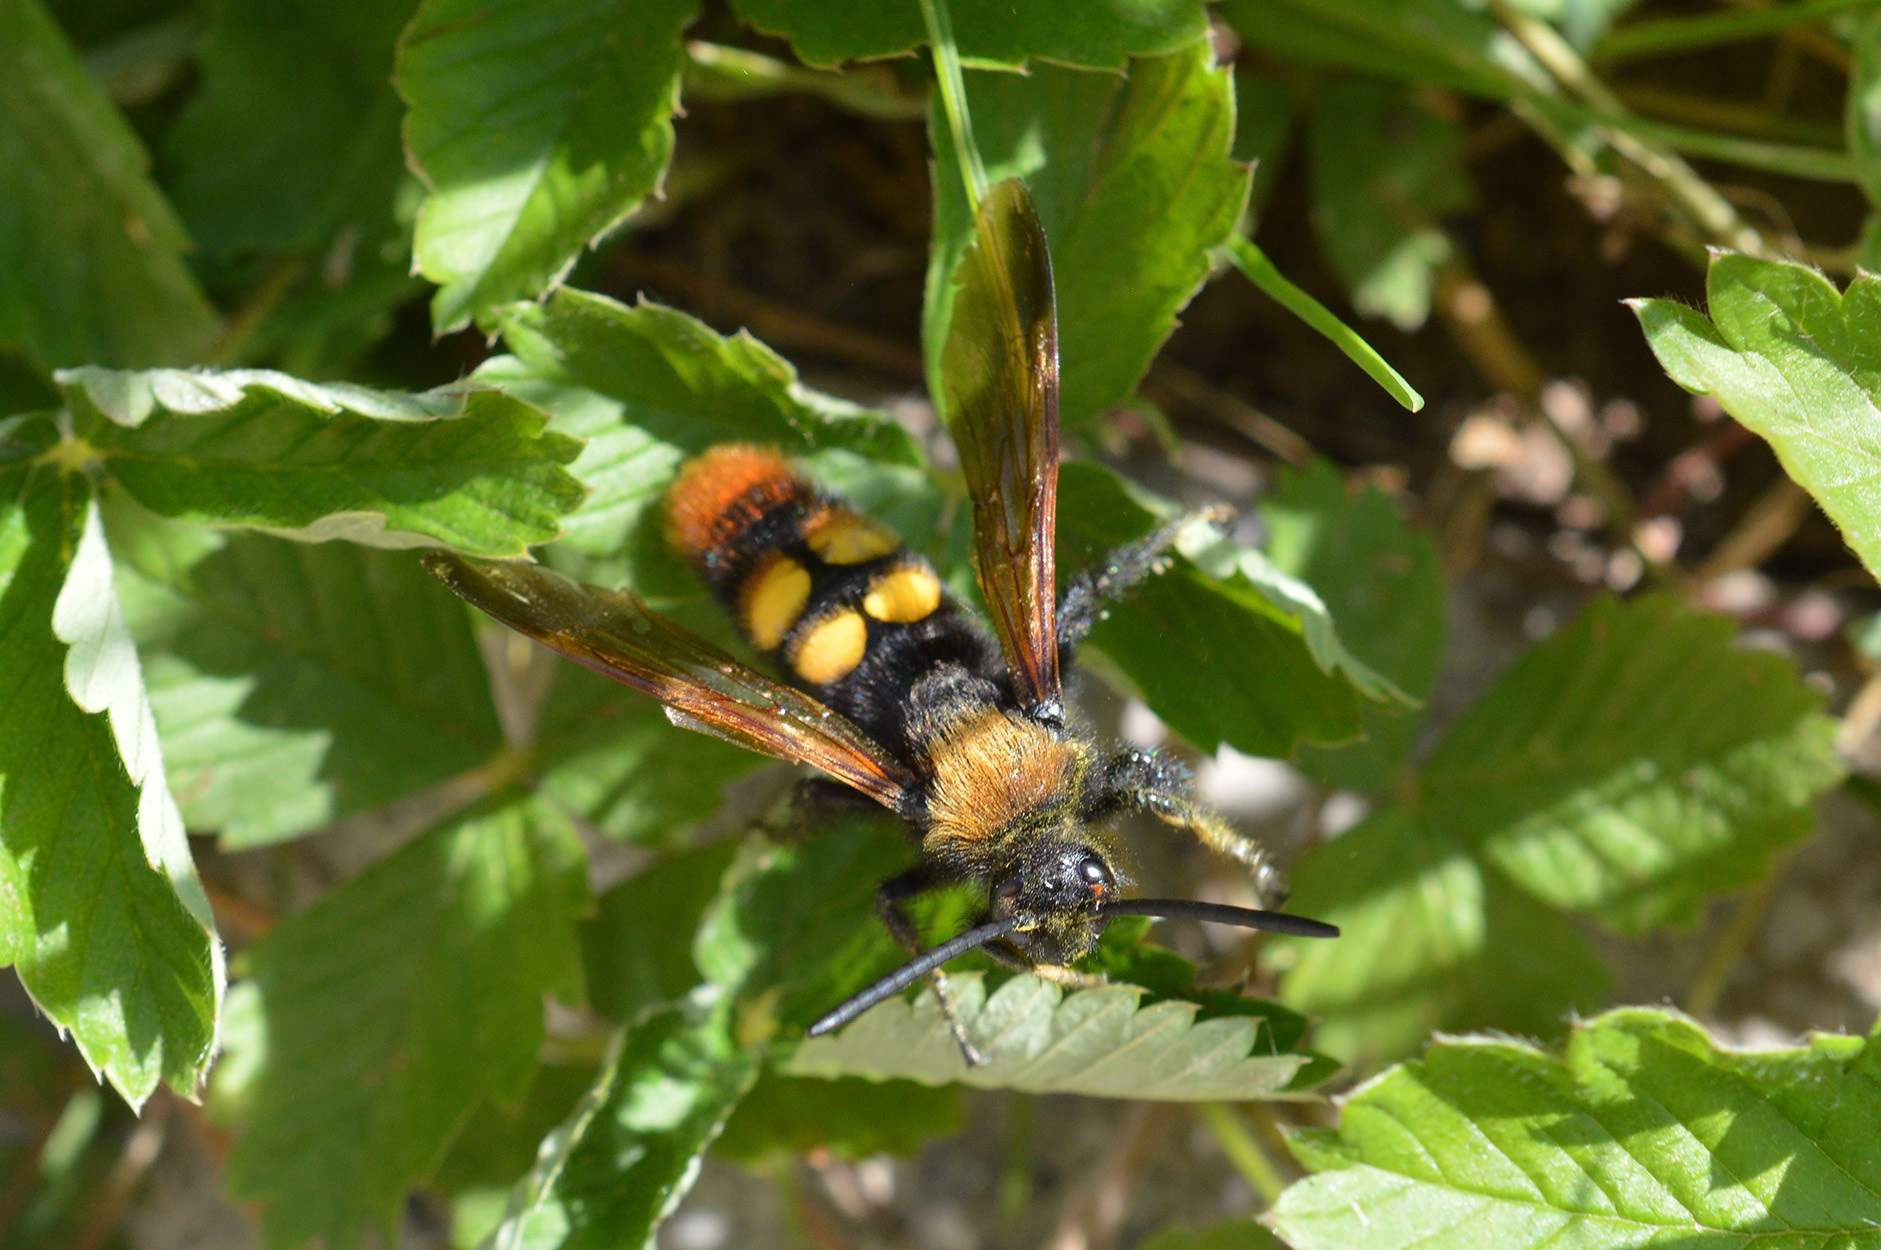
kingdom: Animalia
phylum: Arthropoda
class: Insecta
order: Hymenoptera
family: Scoliidae
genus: Megascolia
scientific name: Megascolia maculata
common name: Mammoth wasp
